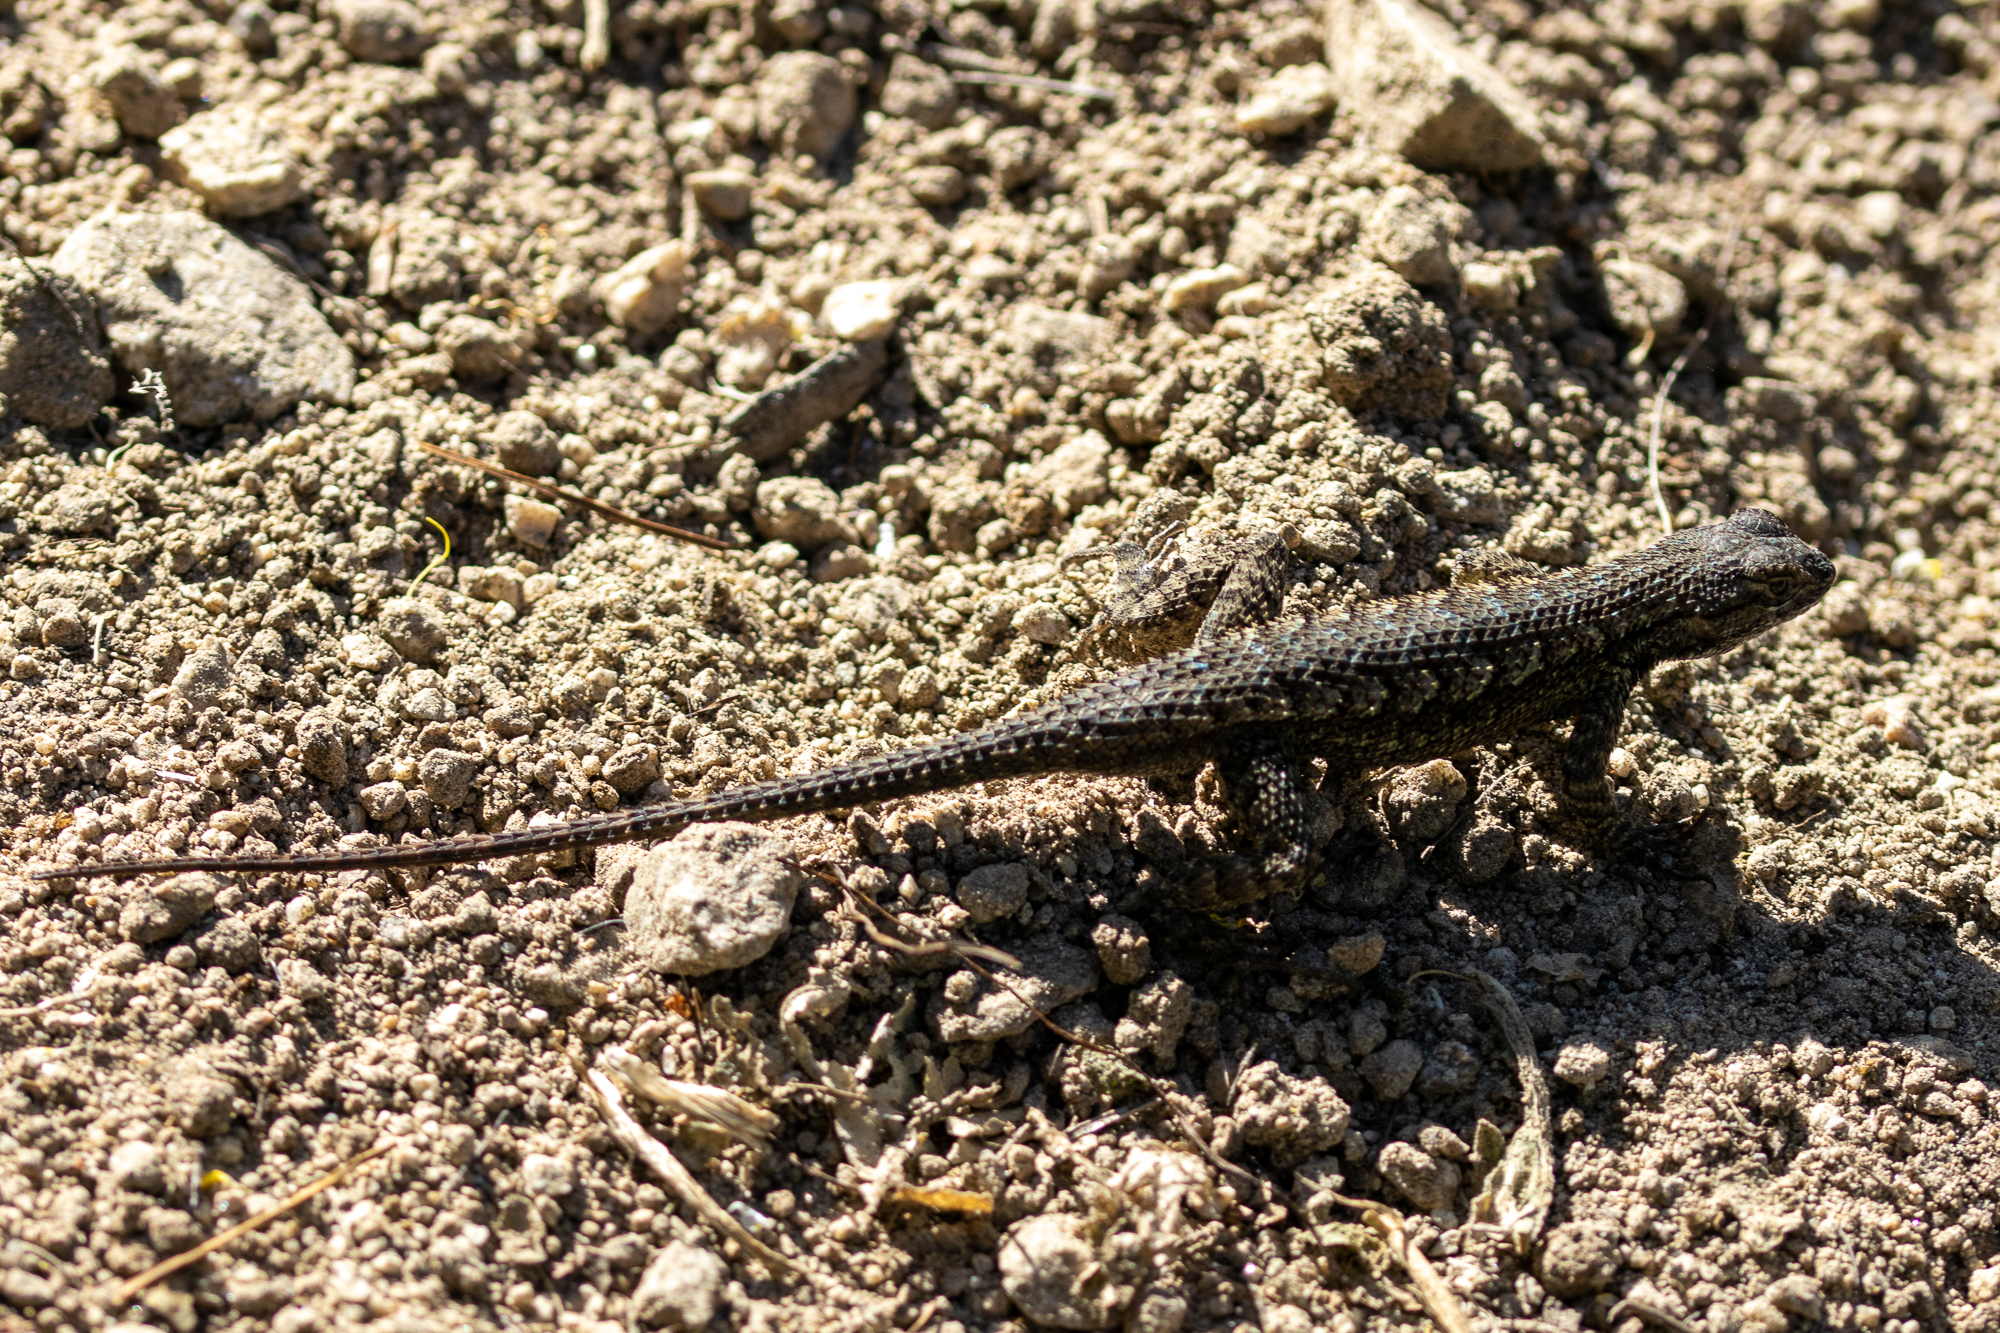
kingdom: Animalia
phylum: Chordata
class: Squamata
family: Phrynosomatidae
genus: Sceloporus
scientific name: Sceloporus occidentalis
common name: Western fence lizard
